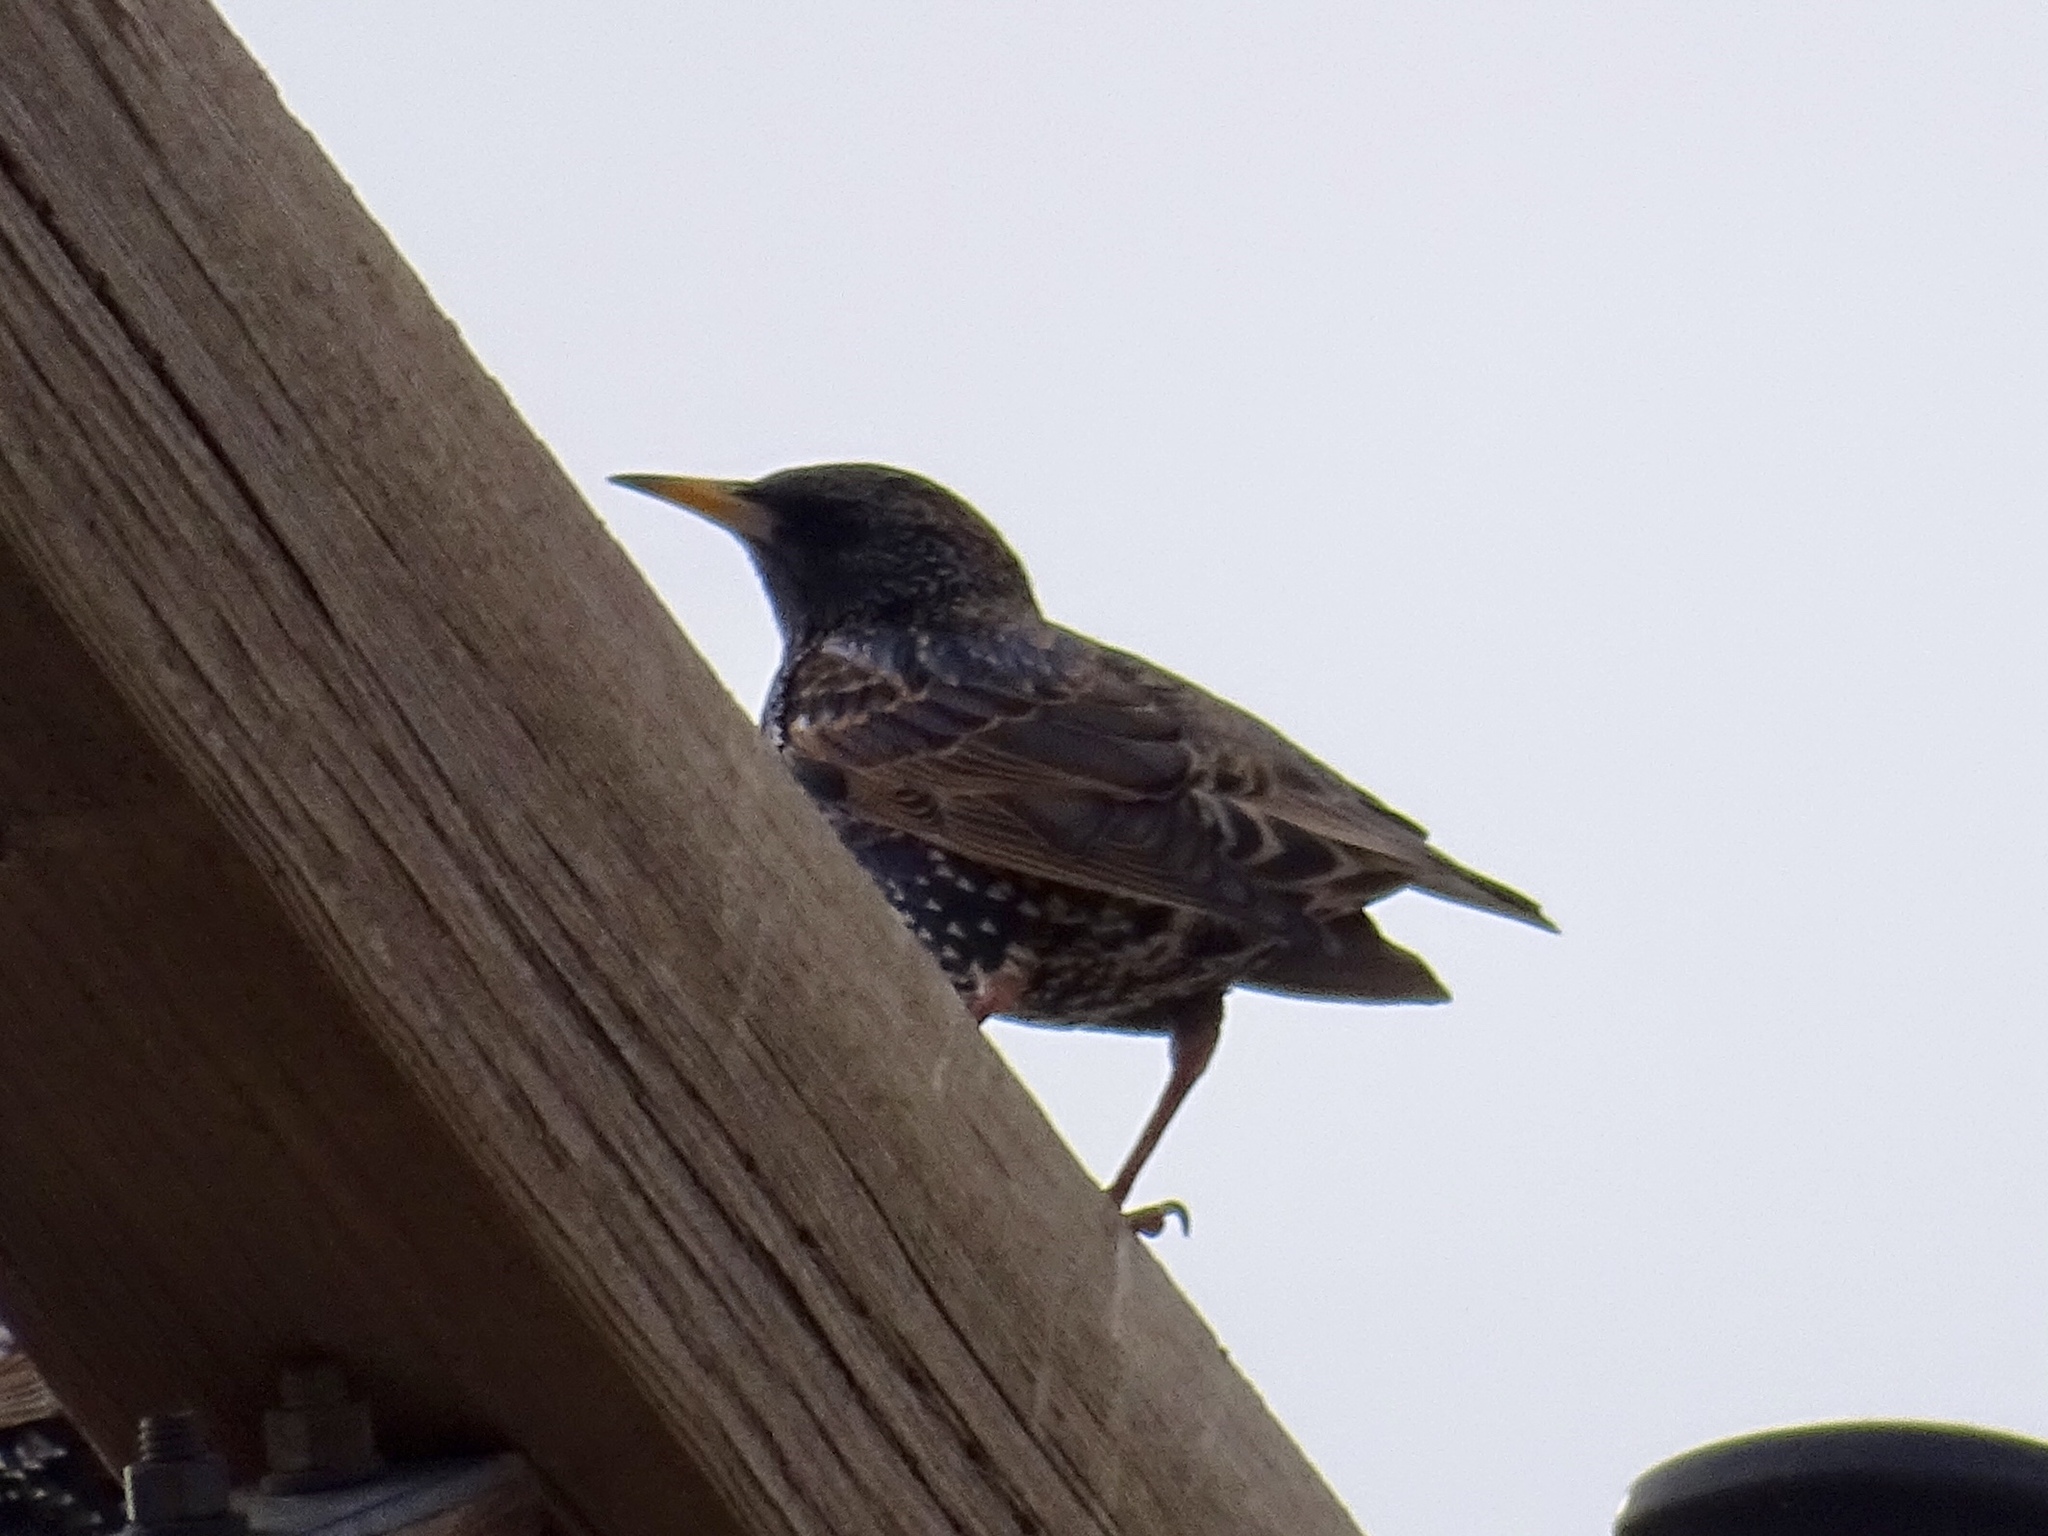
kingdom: Animalia
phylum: Chordata
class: Aves
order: Passeriformes
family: Sturnidae
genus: Sturnus
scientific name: Sturnus vulgaris
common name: Common starling
